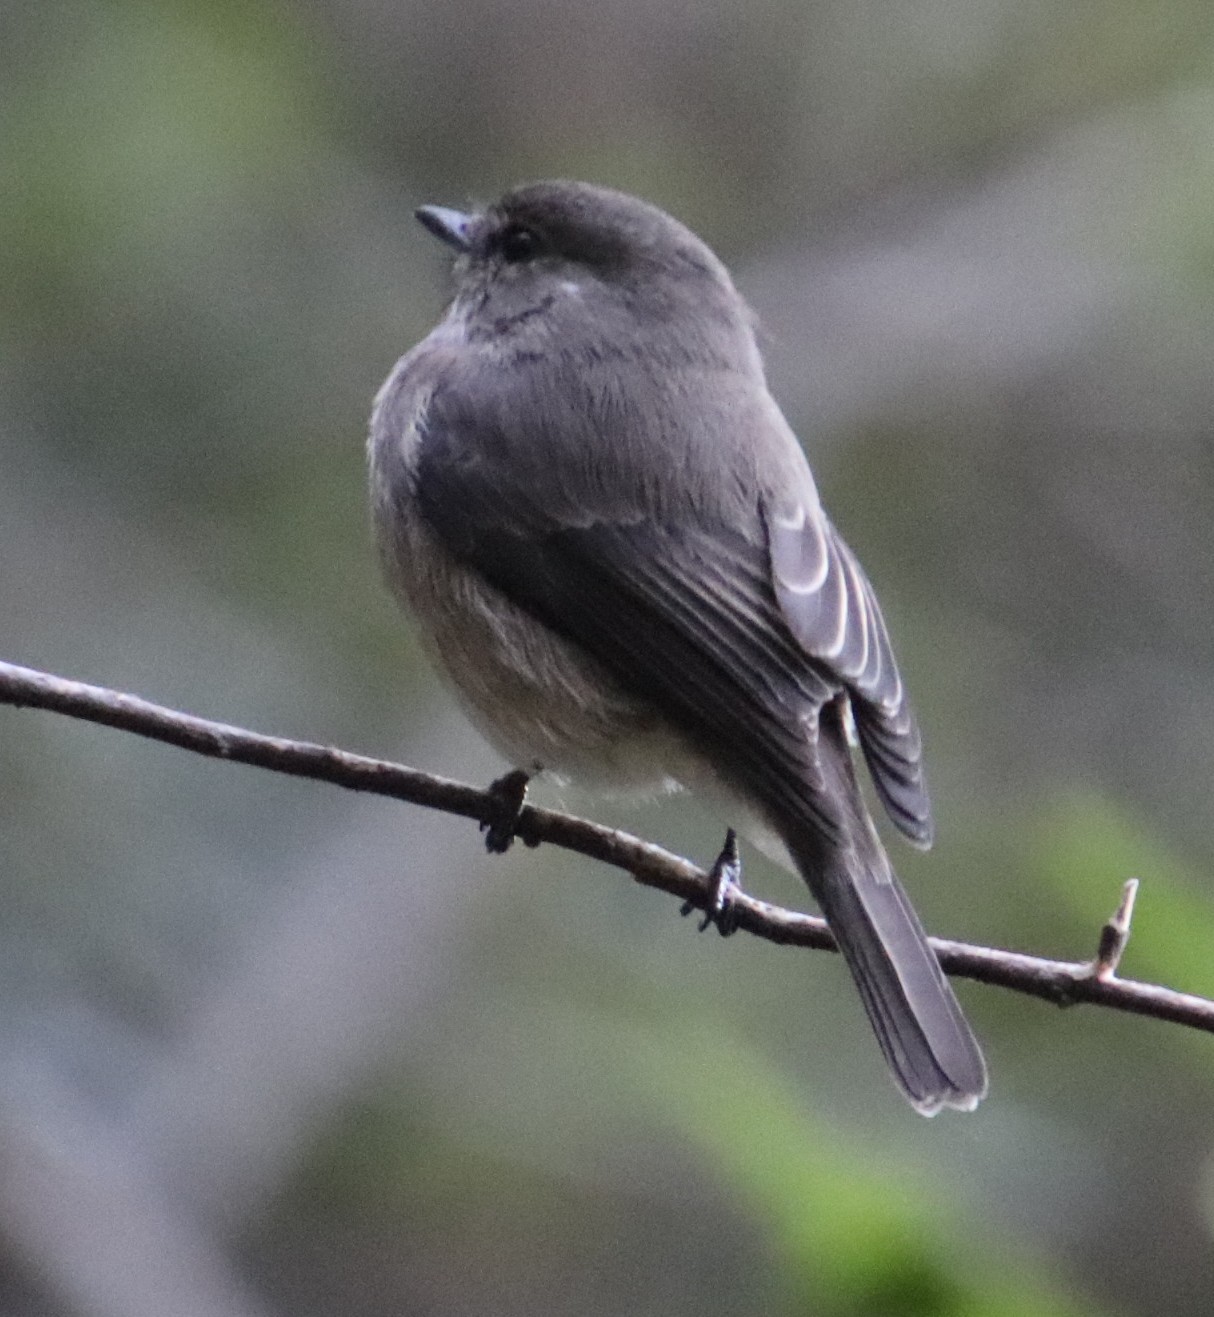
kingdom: Animalia
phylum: Chordata
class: Aves
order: Passeriformes
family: Muscicapidae
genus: Muscicapa
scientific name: Muscicapa adusta
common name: African dusky flycatcher
